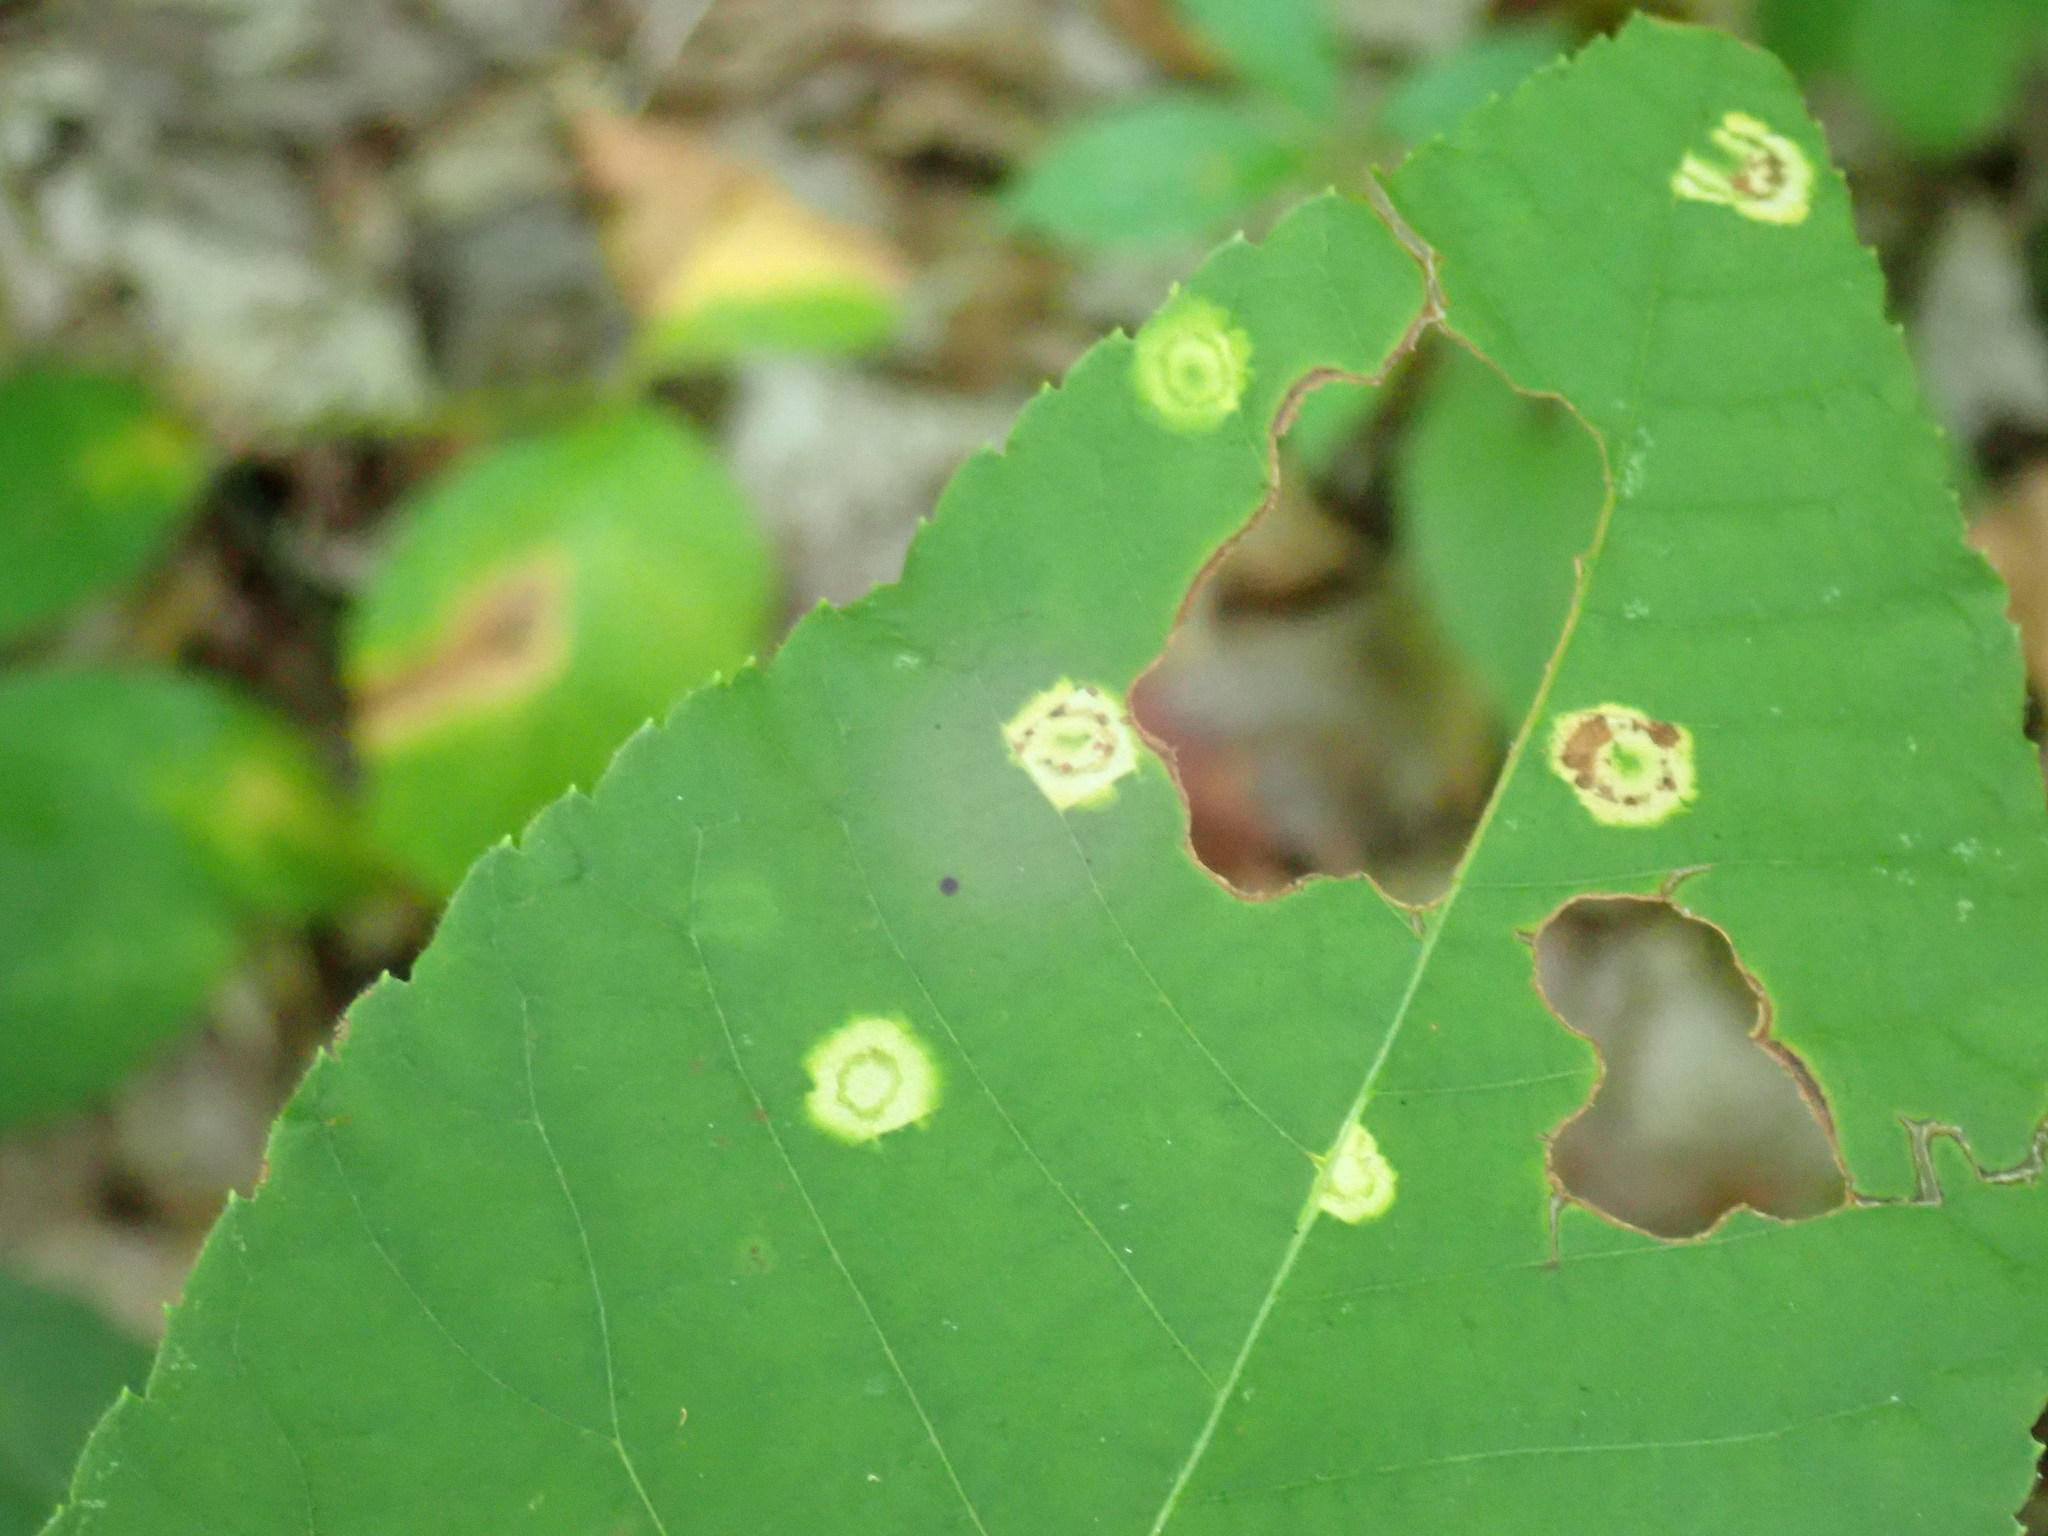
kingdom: Animalia
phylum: Arthropoda
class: Insecta
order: Diptera
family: Cecidomyiidae
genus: Gliaspilota
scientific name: Gliaspilota glutinosa
